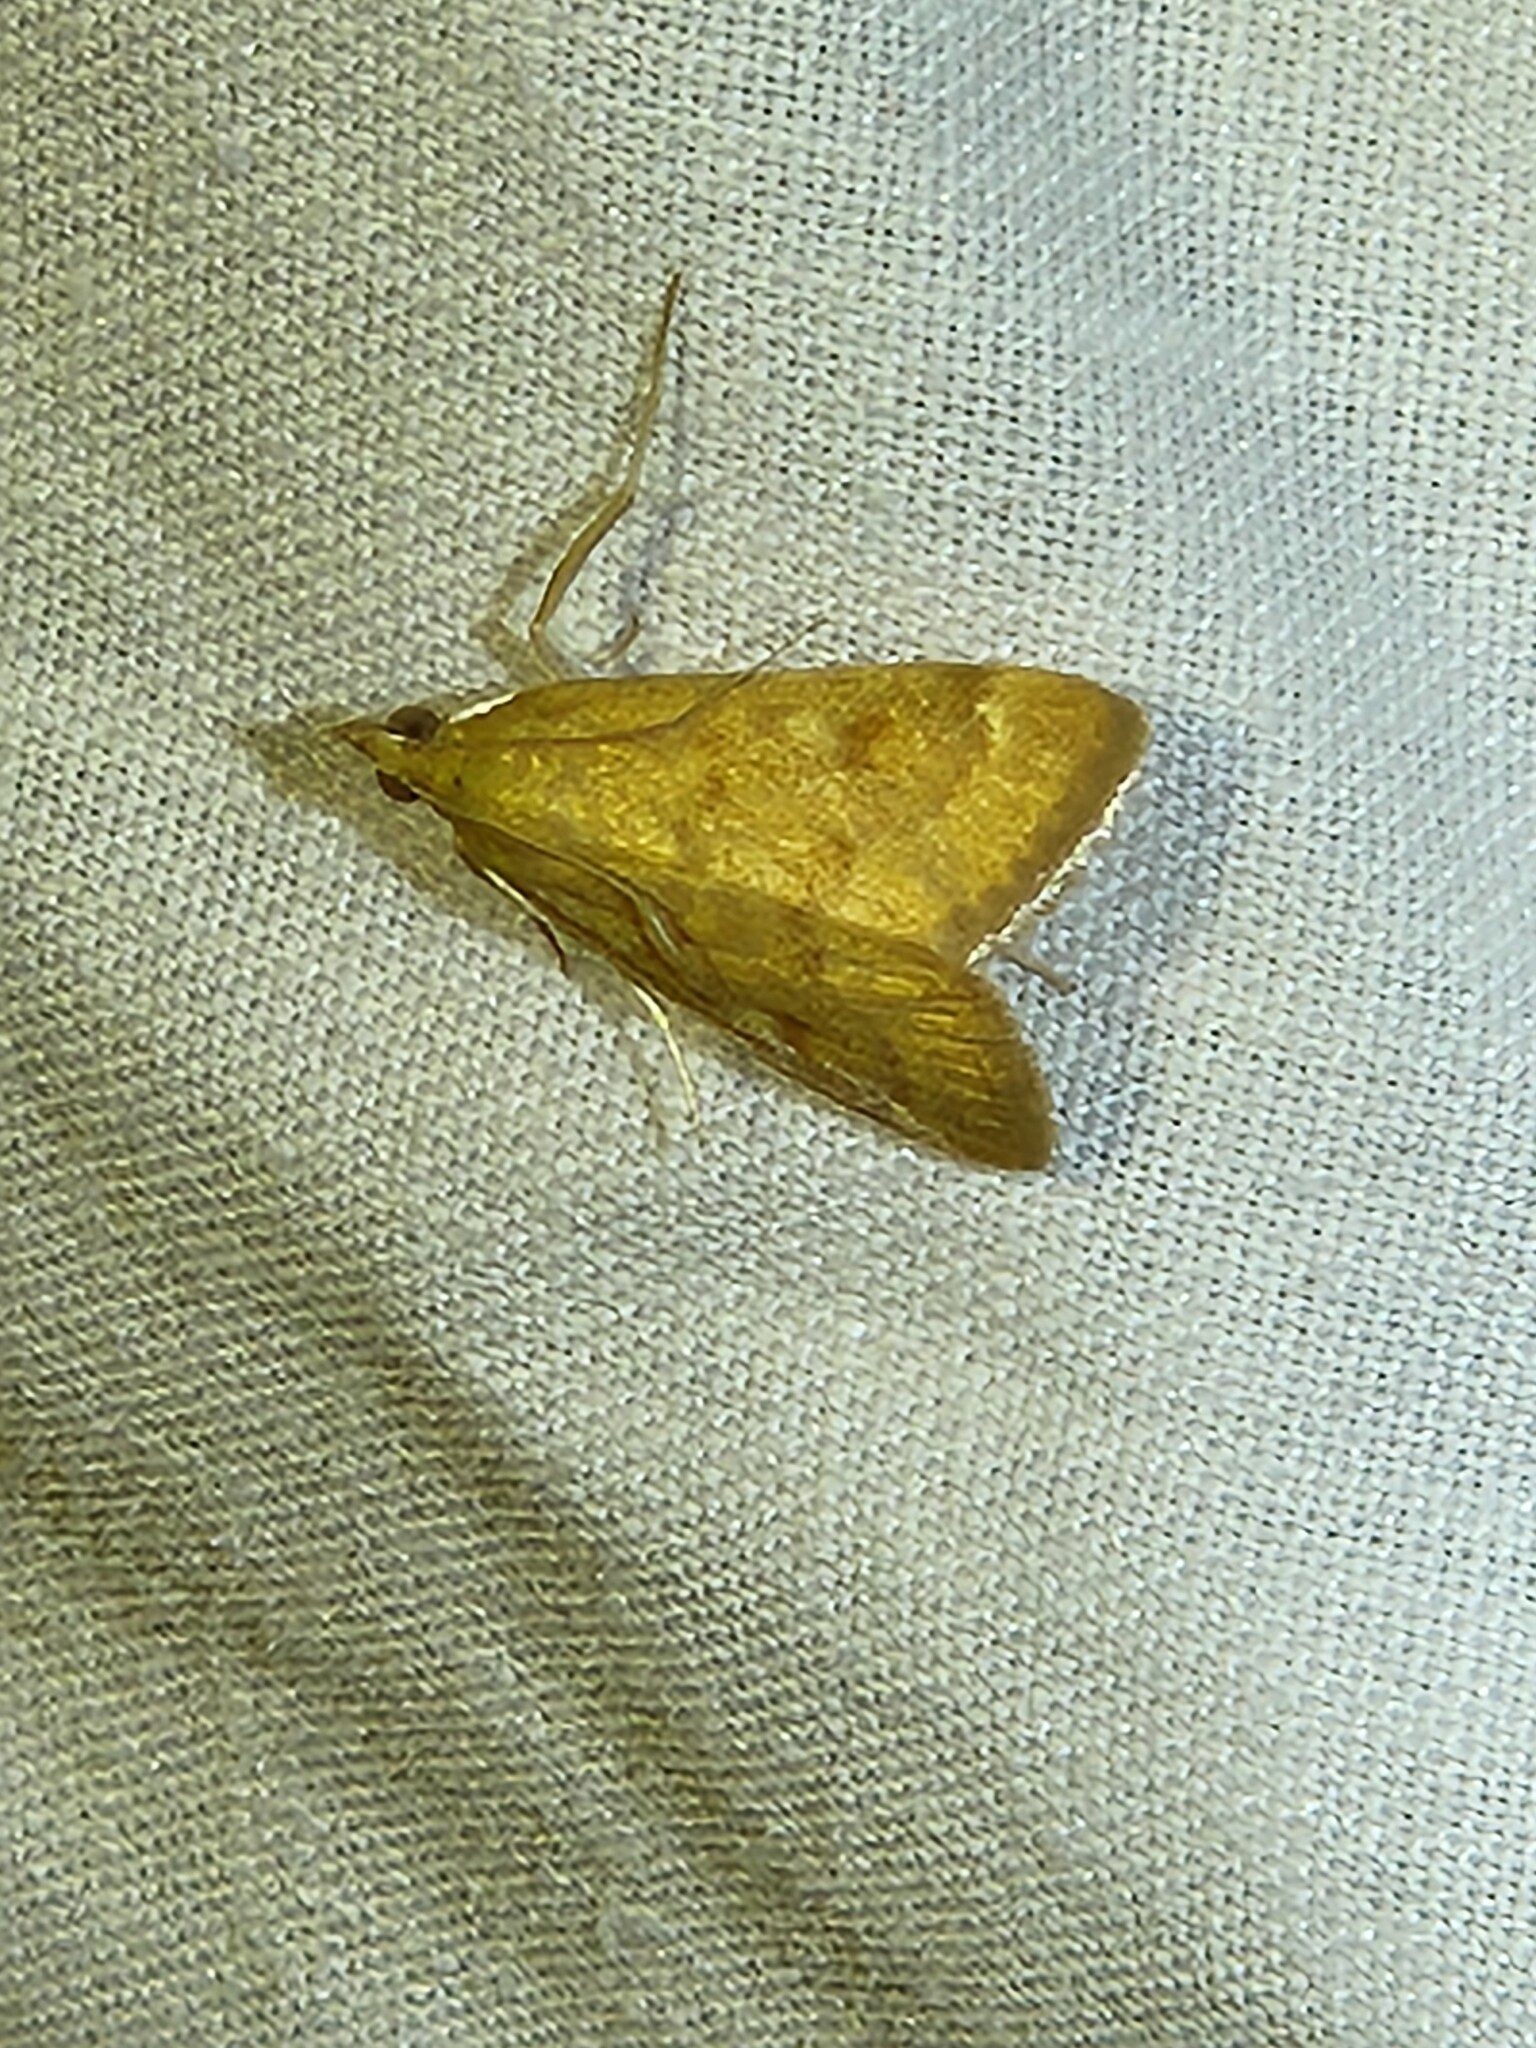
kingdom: Animalia
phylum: Arthropoda
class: Insecta
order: Lepidoptera
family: Crambidae
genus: Achyra
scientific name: Achyra rantalis
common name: Garden webworm
